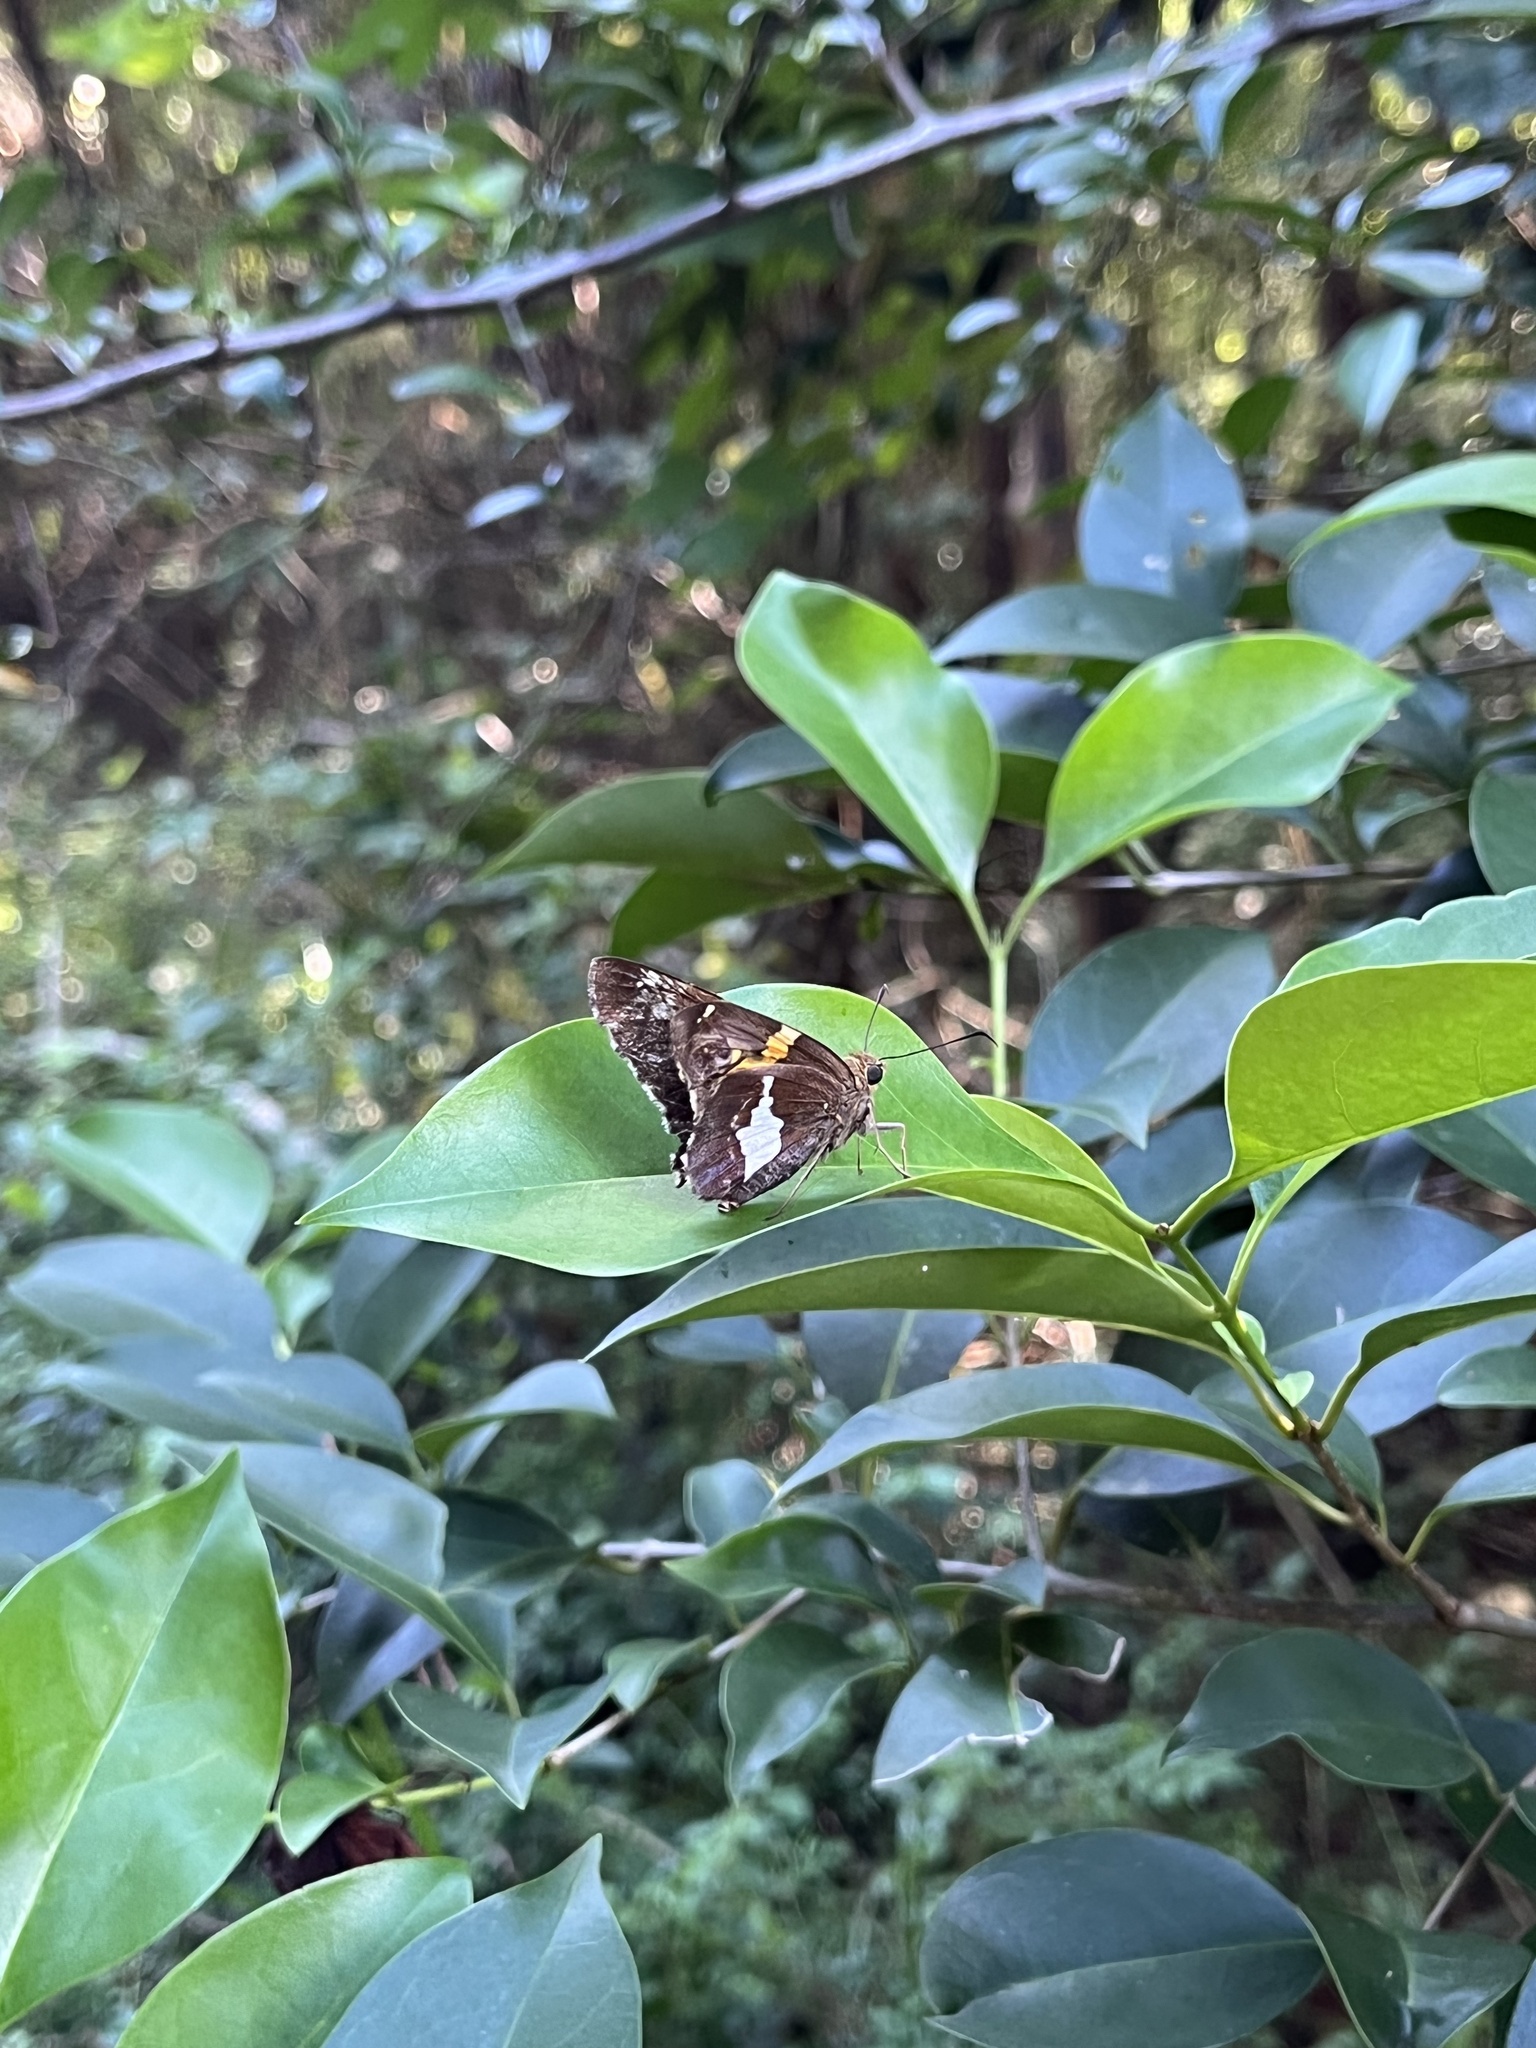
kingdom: Animalia
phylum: Arthropoda
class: Insecta
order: Lepidoptera
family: Hesperiidae
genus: Epargyreus
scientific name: Epargyreus clarus
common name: Silver-spotted skipper
